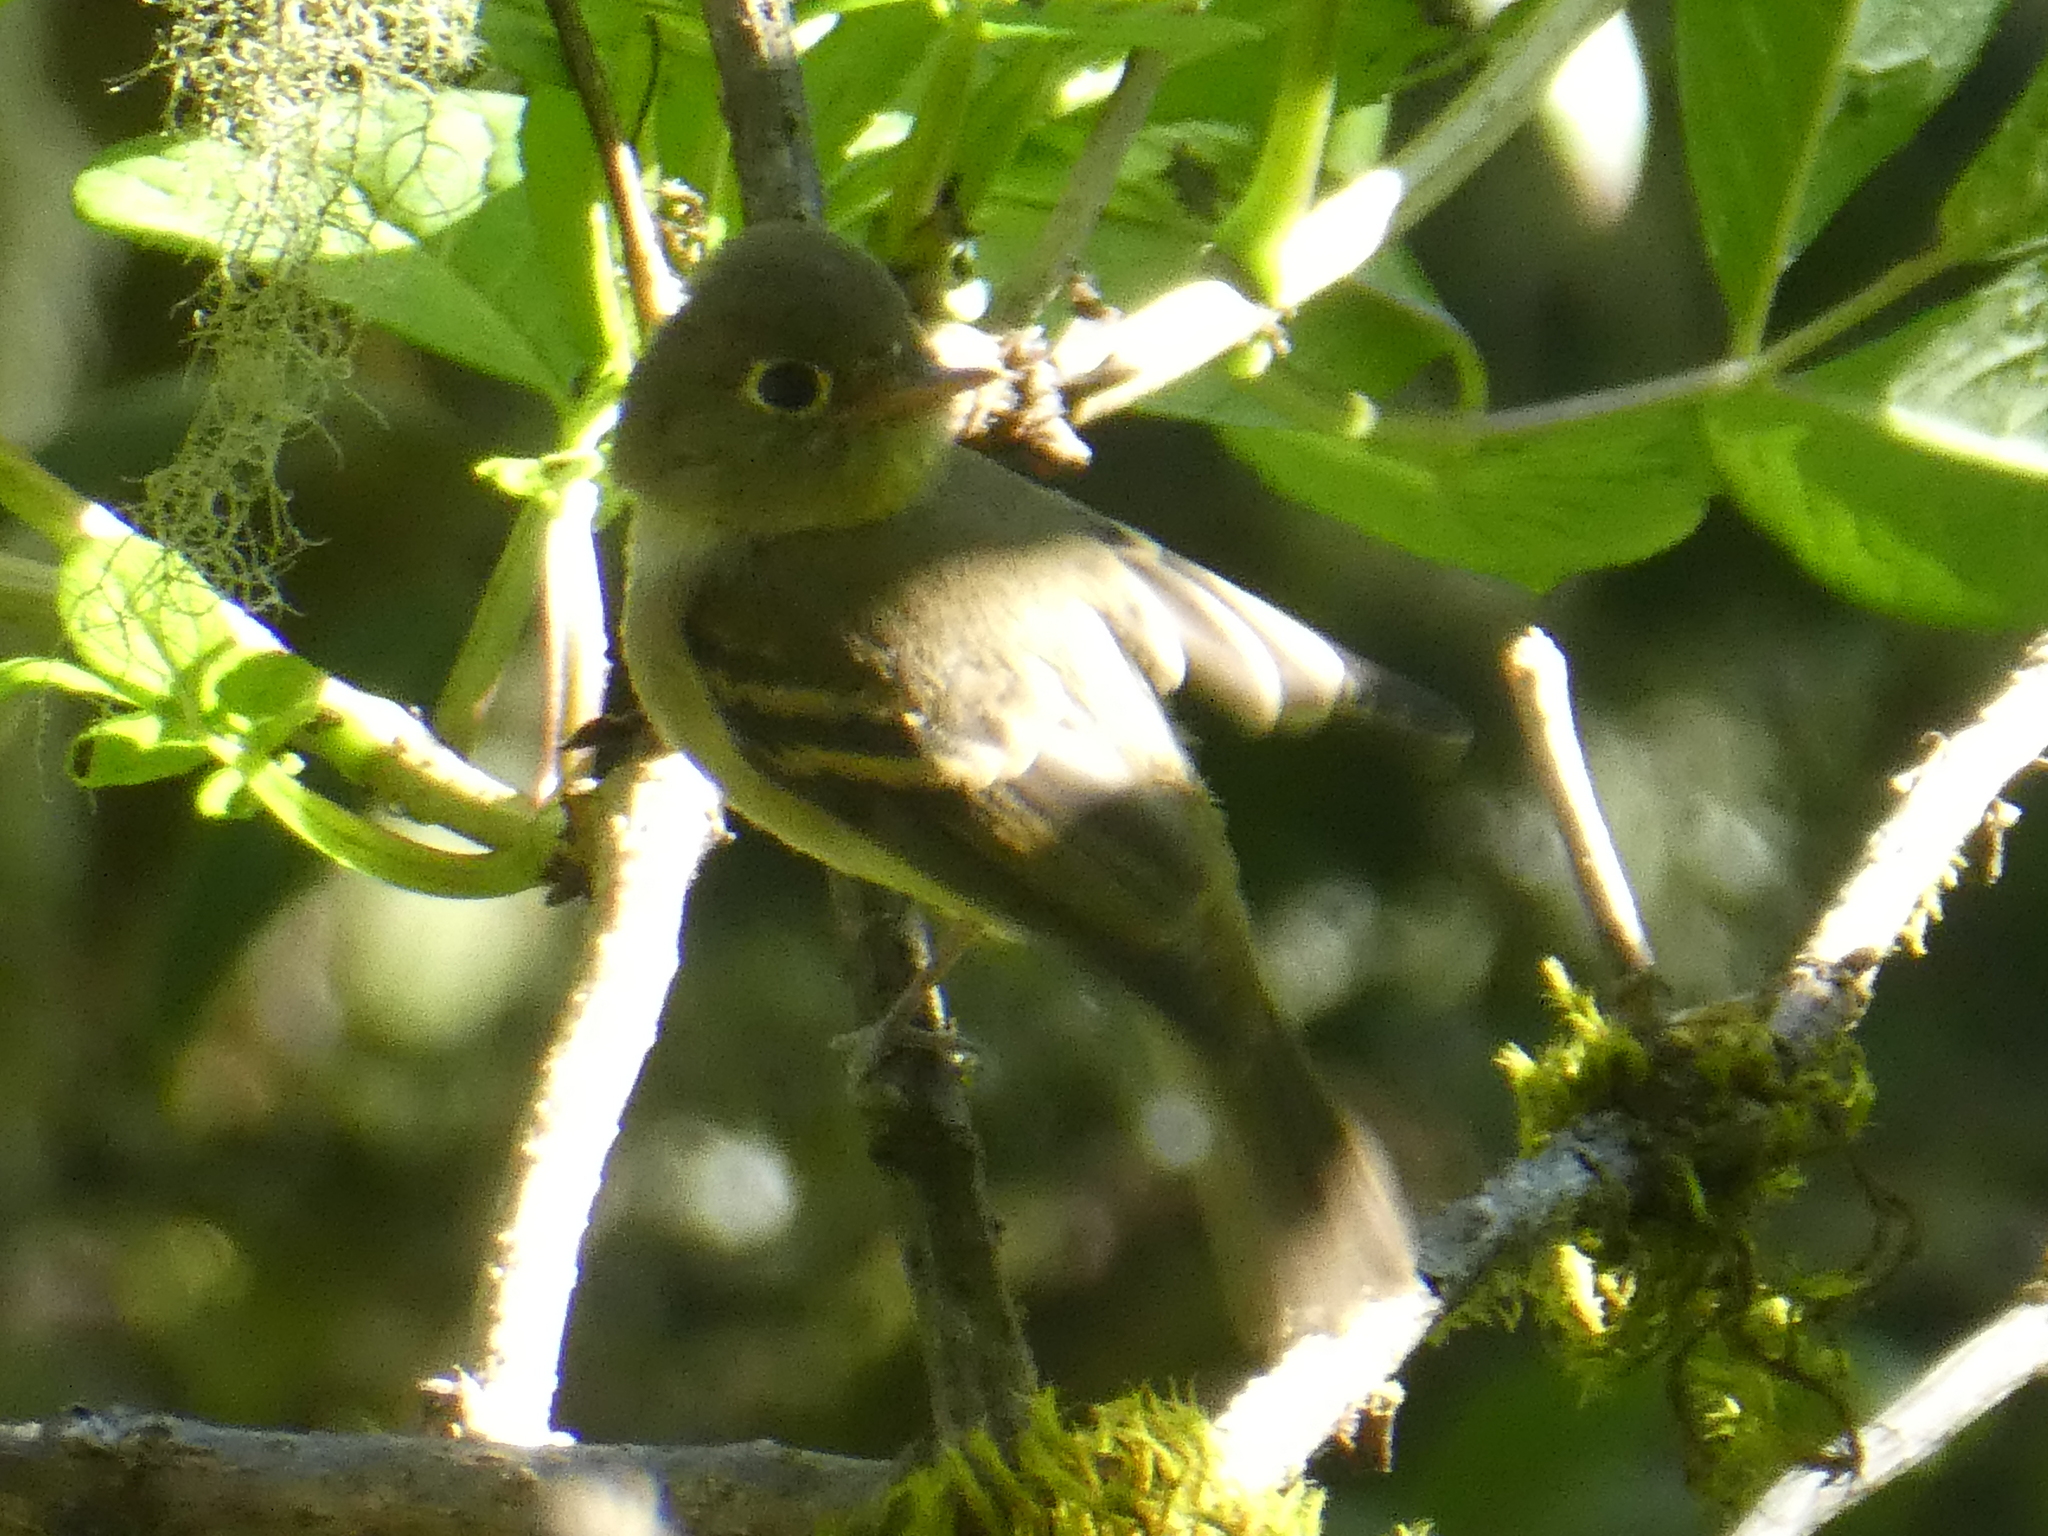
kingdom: Animalia
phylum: Chordata
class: Aves
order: Passeriformes
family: Tyrannidae
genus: Empidonax
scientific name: Empidonax difficilis
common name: Pacific-slope flycatcher
